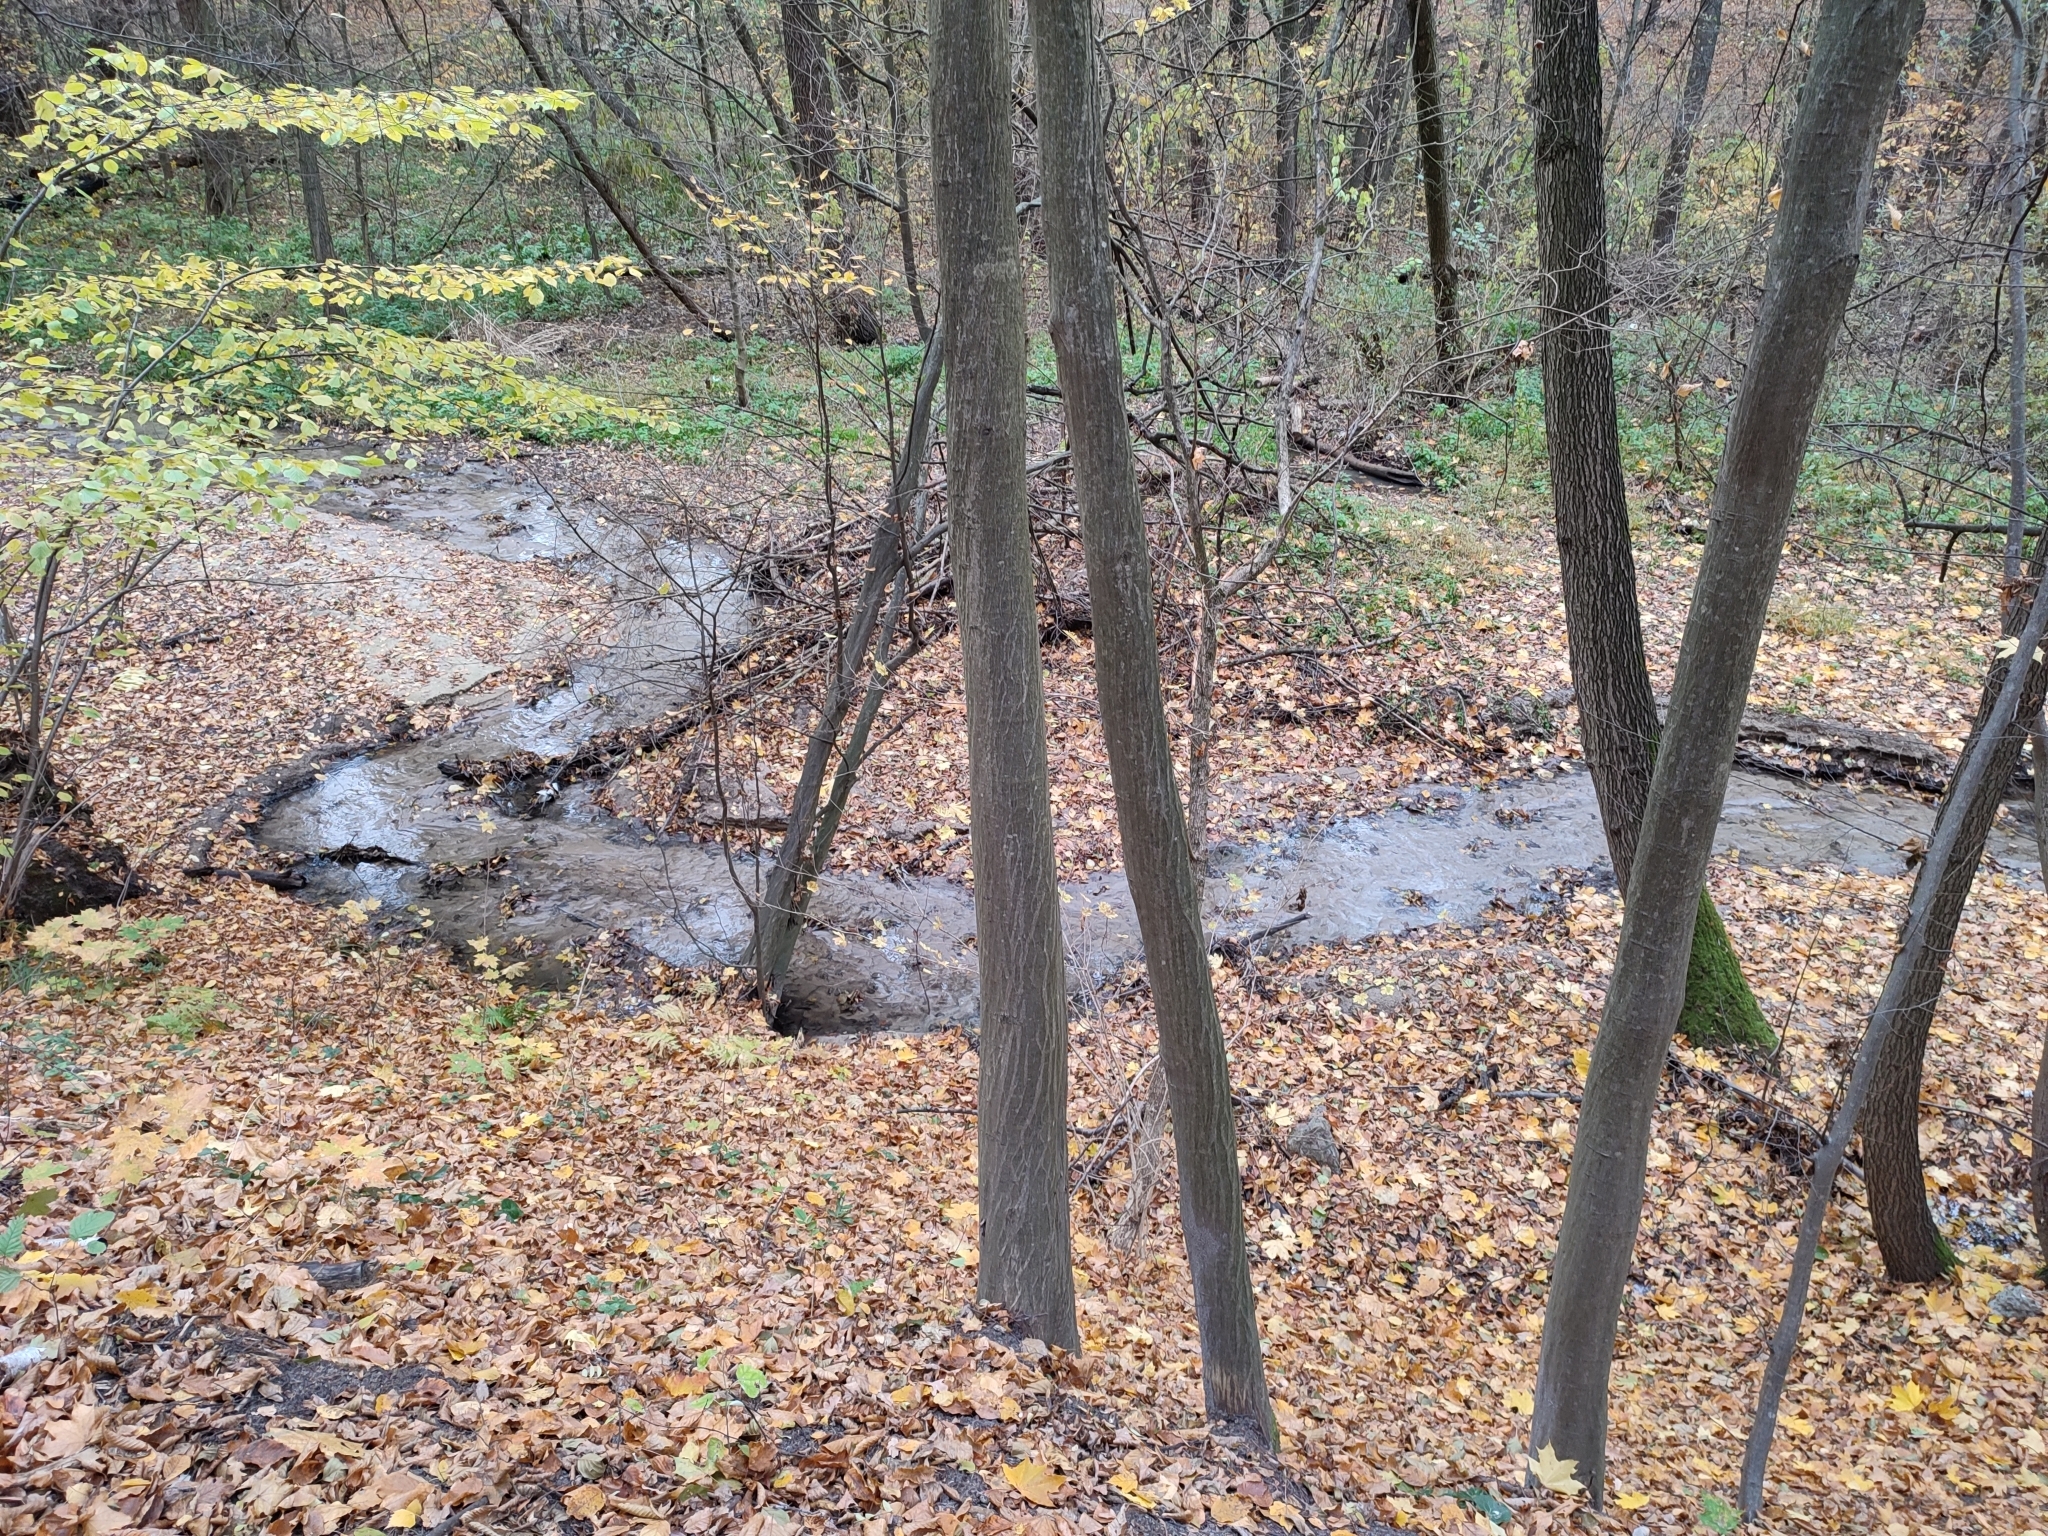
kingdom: Plantae
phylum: Tracheophyta
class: Magnoliopsida
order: Fagales
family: Betulaceae
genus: Carpinus
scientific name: Carpinus betulus
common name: Hornbeam
